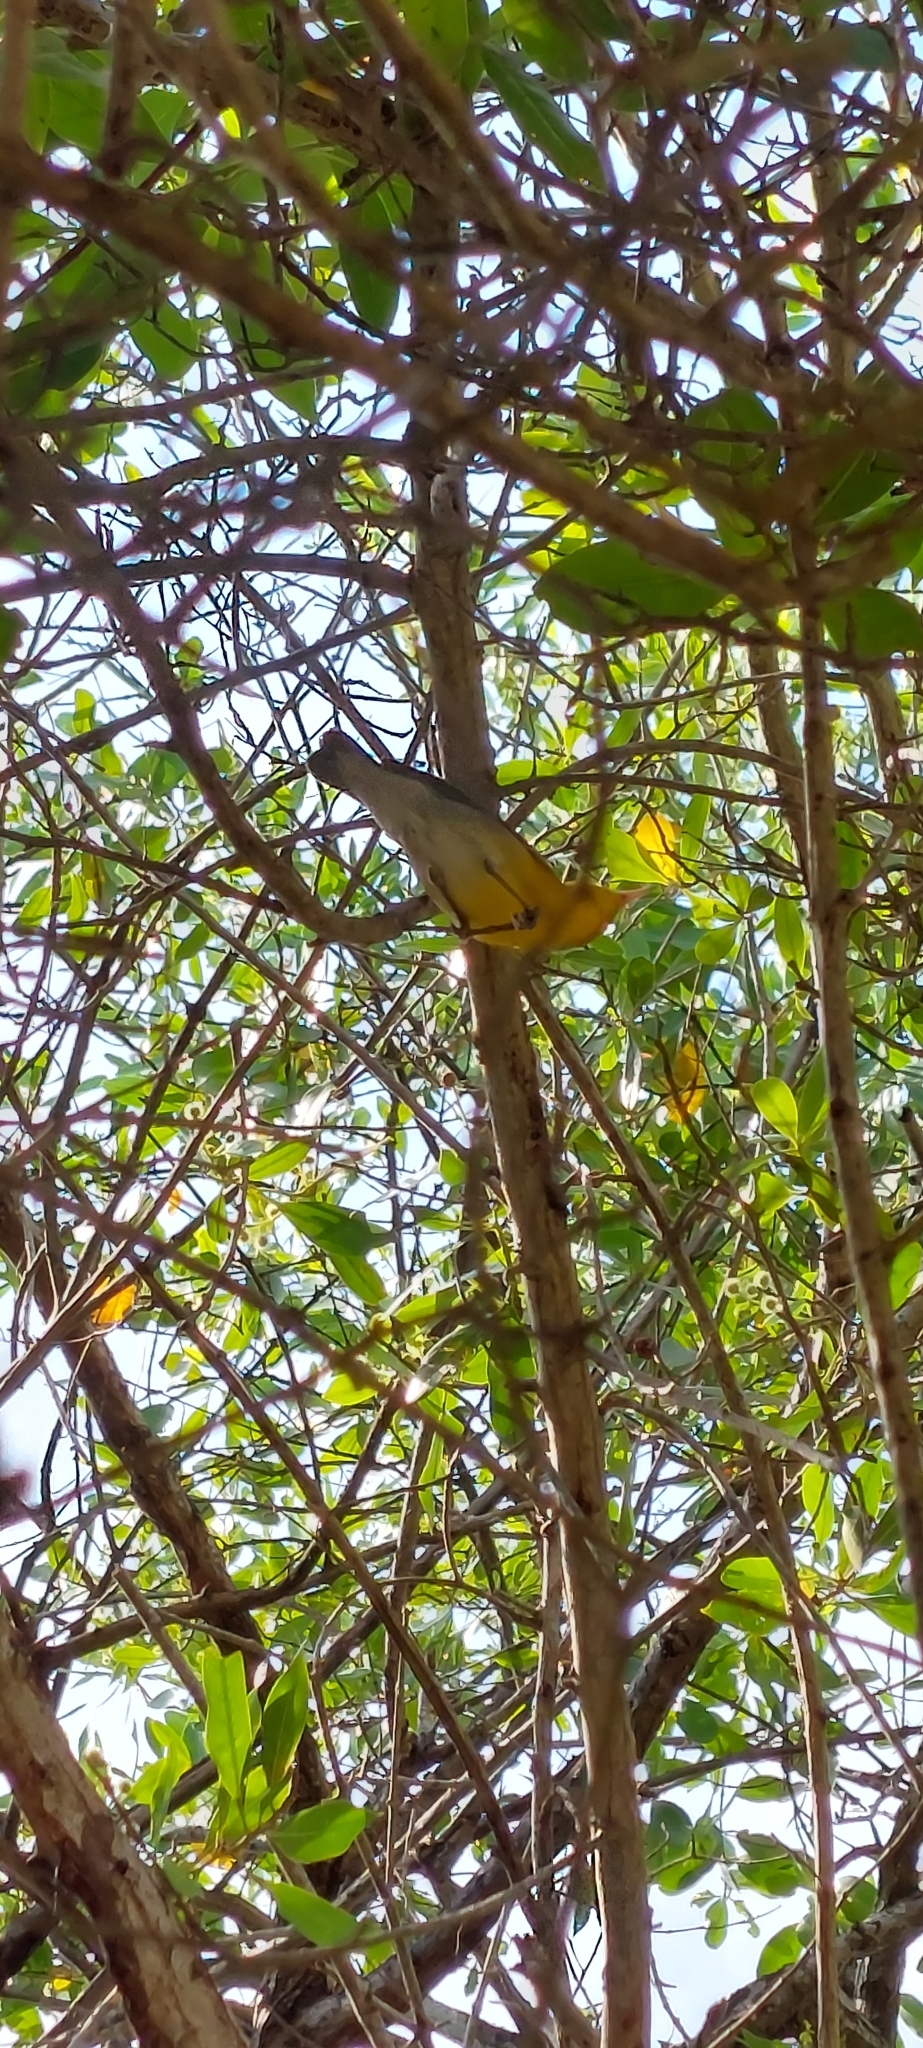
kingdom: Animalia
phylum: Chordata
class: Aves
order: Passeriformes
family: Parulidae
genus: Protonotaria
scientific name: Protonotaria citrea
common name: Prothonotary warbler
